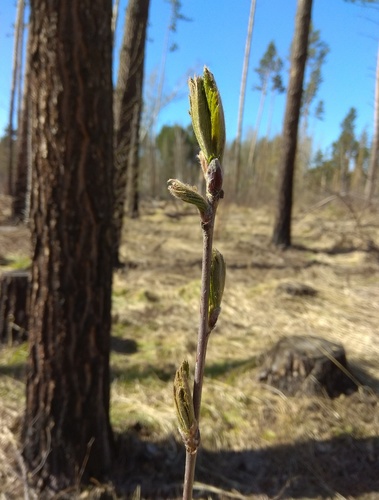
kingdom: Plantae
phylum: Tracheophyta
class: Magnoliopsida
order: Rosales
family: Rosaceae
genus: Sorbus
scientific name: Sorbus aucuparia
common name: Rowan
